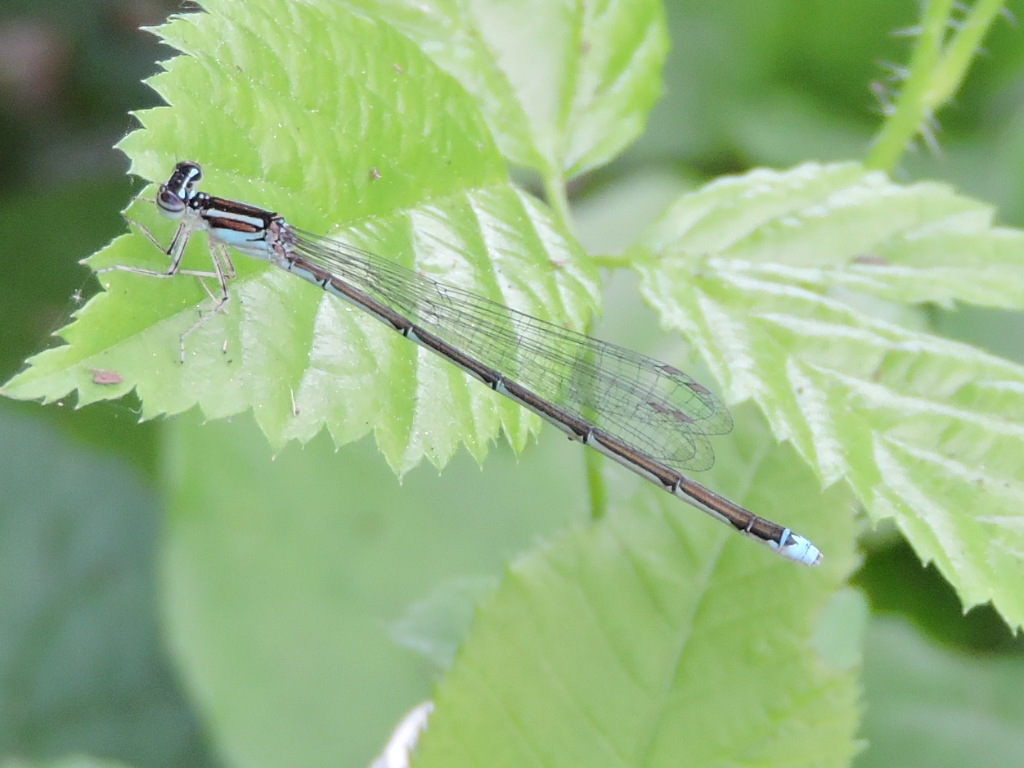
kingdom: Animalia
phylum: Arthropoda
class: Insecta
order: Odonata
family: Coenagrionidae
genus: Enallagma
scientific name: Enallagma exsulans
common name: Stream bluet
